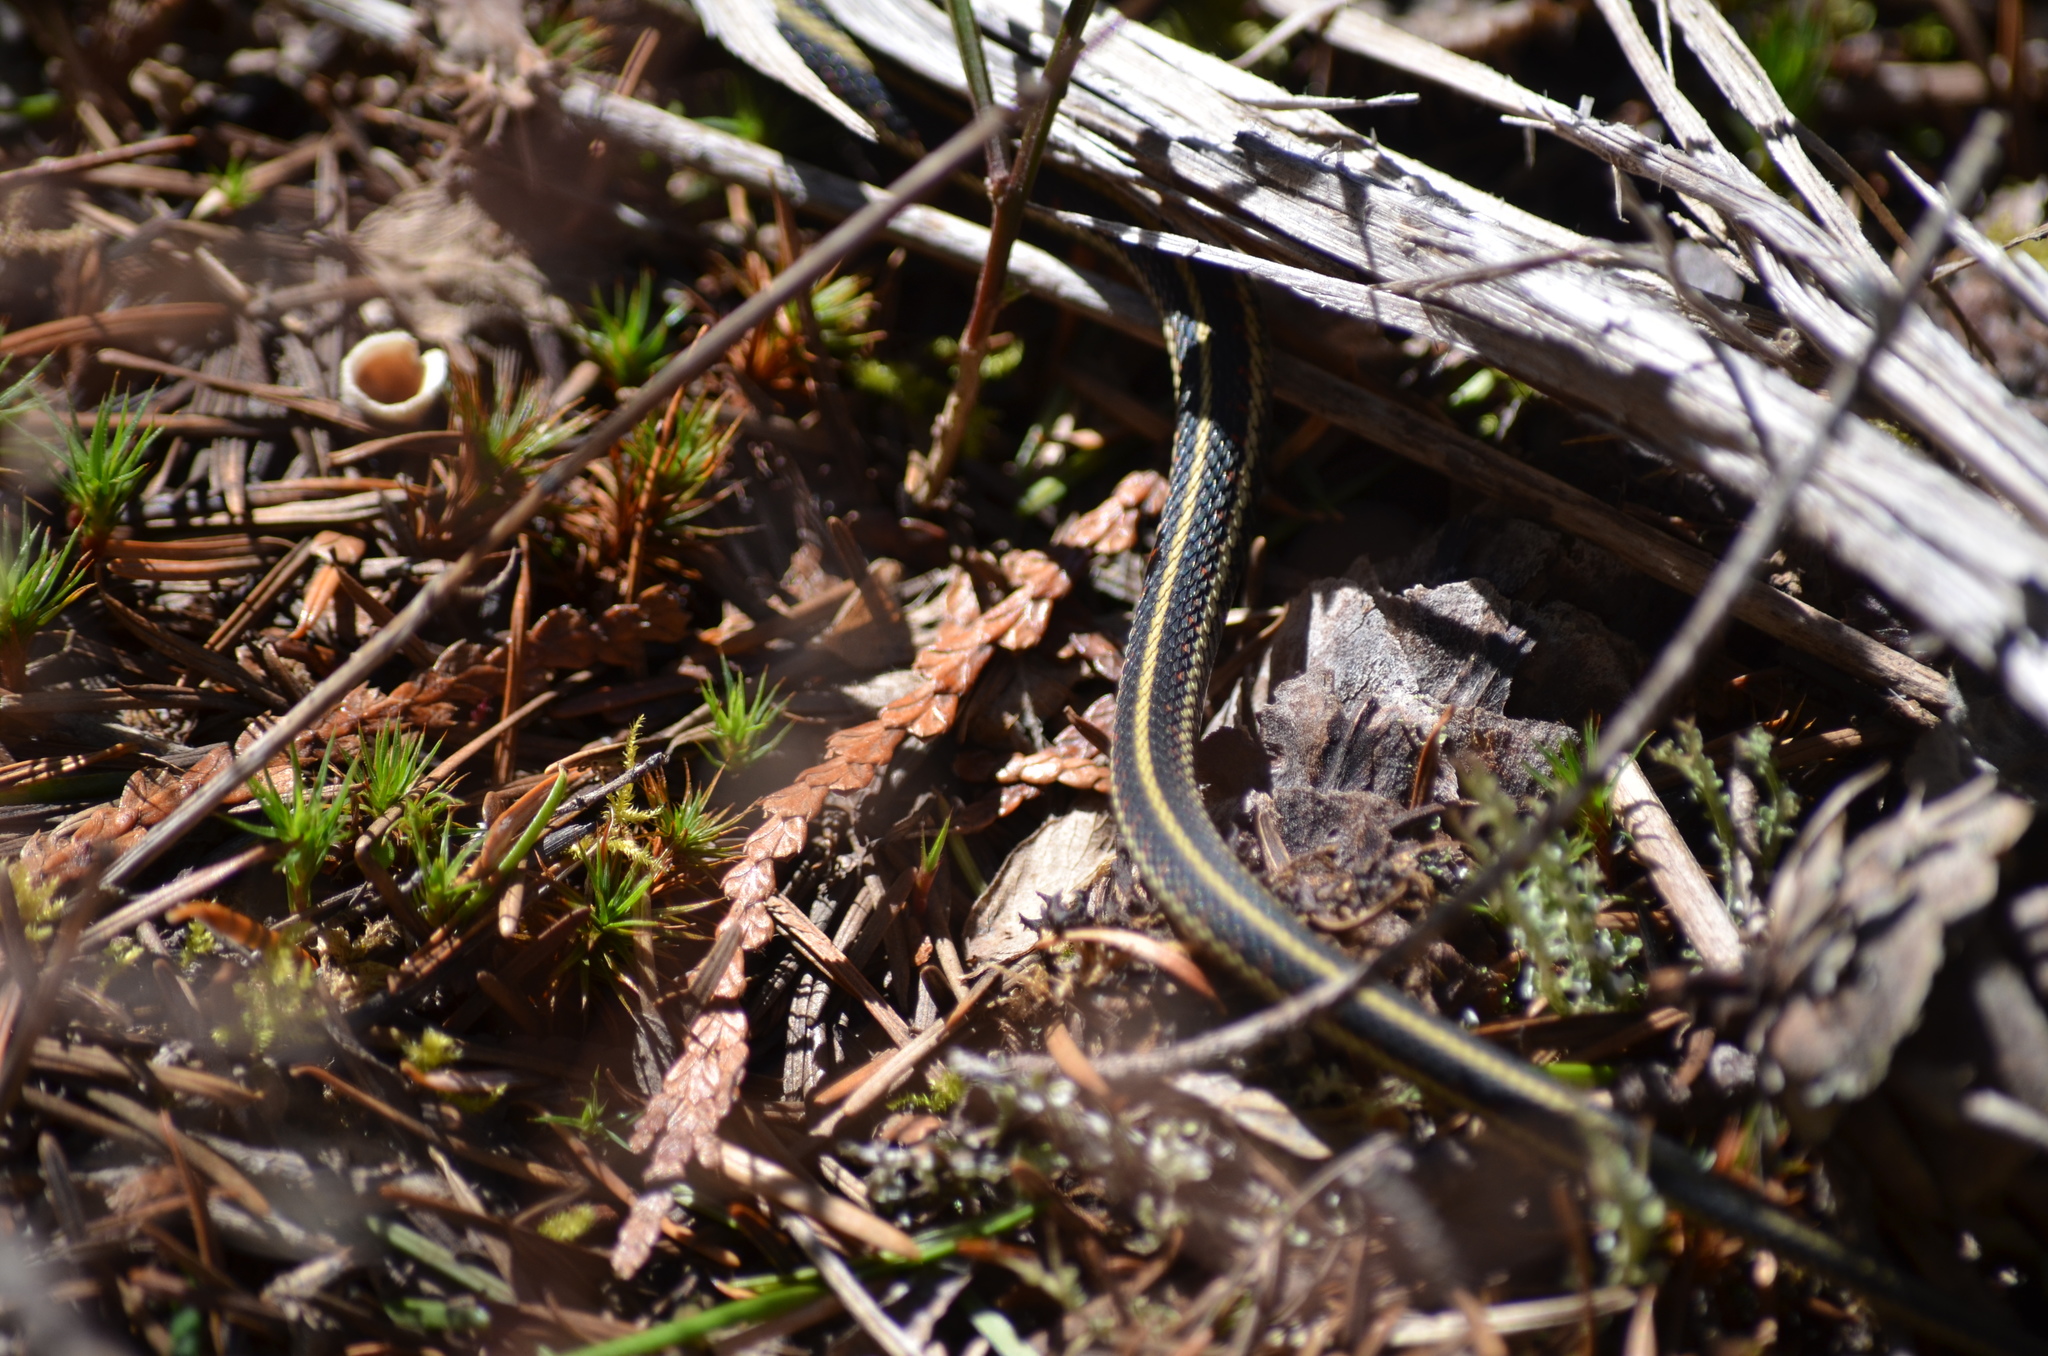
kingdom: Animalia
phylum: Chordata
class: Squamata
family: Colubridae
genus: Thamnophis
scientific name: Thamnophis sirtalis
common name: Common garter snake
